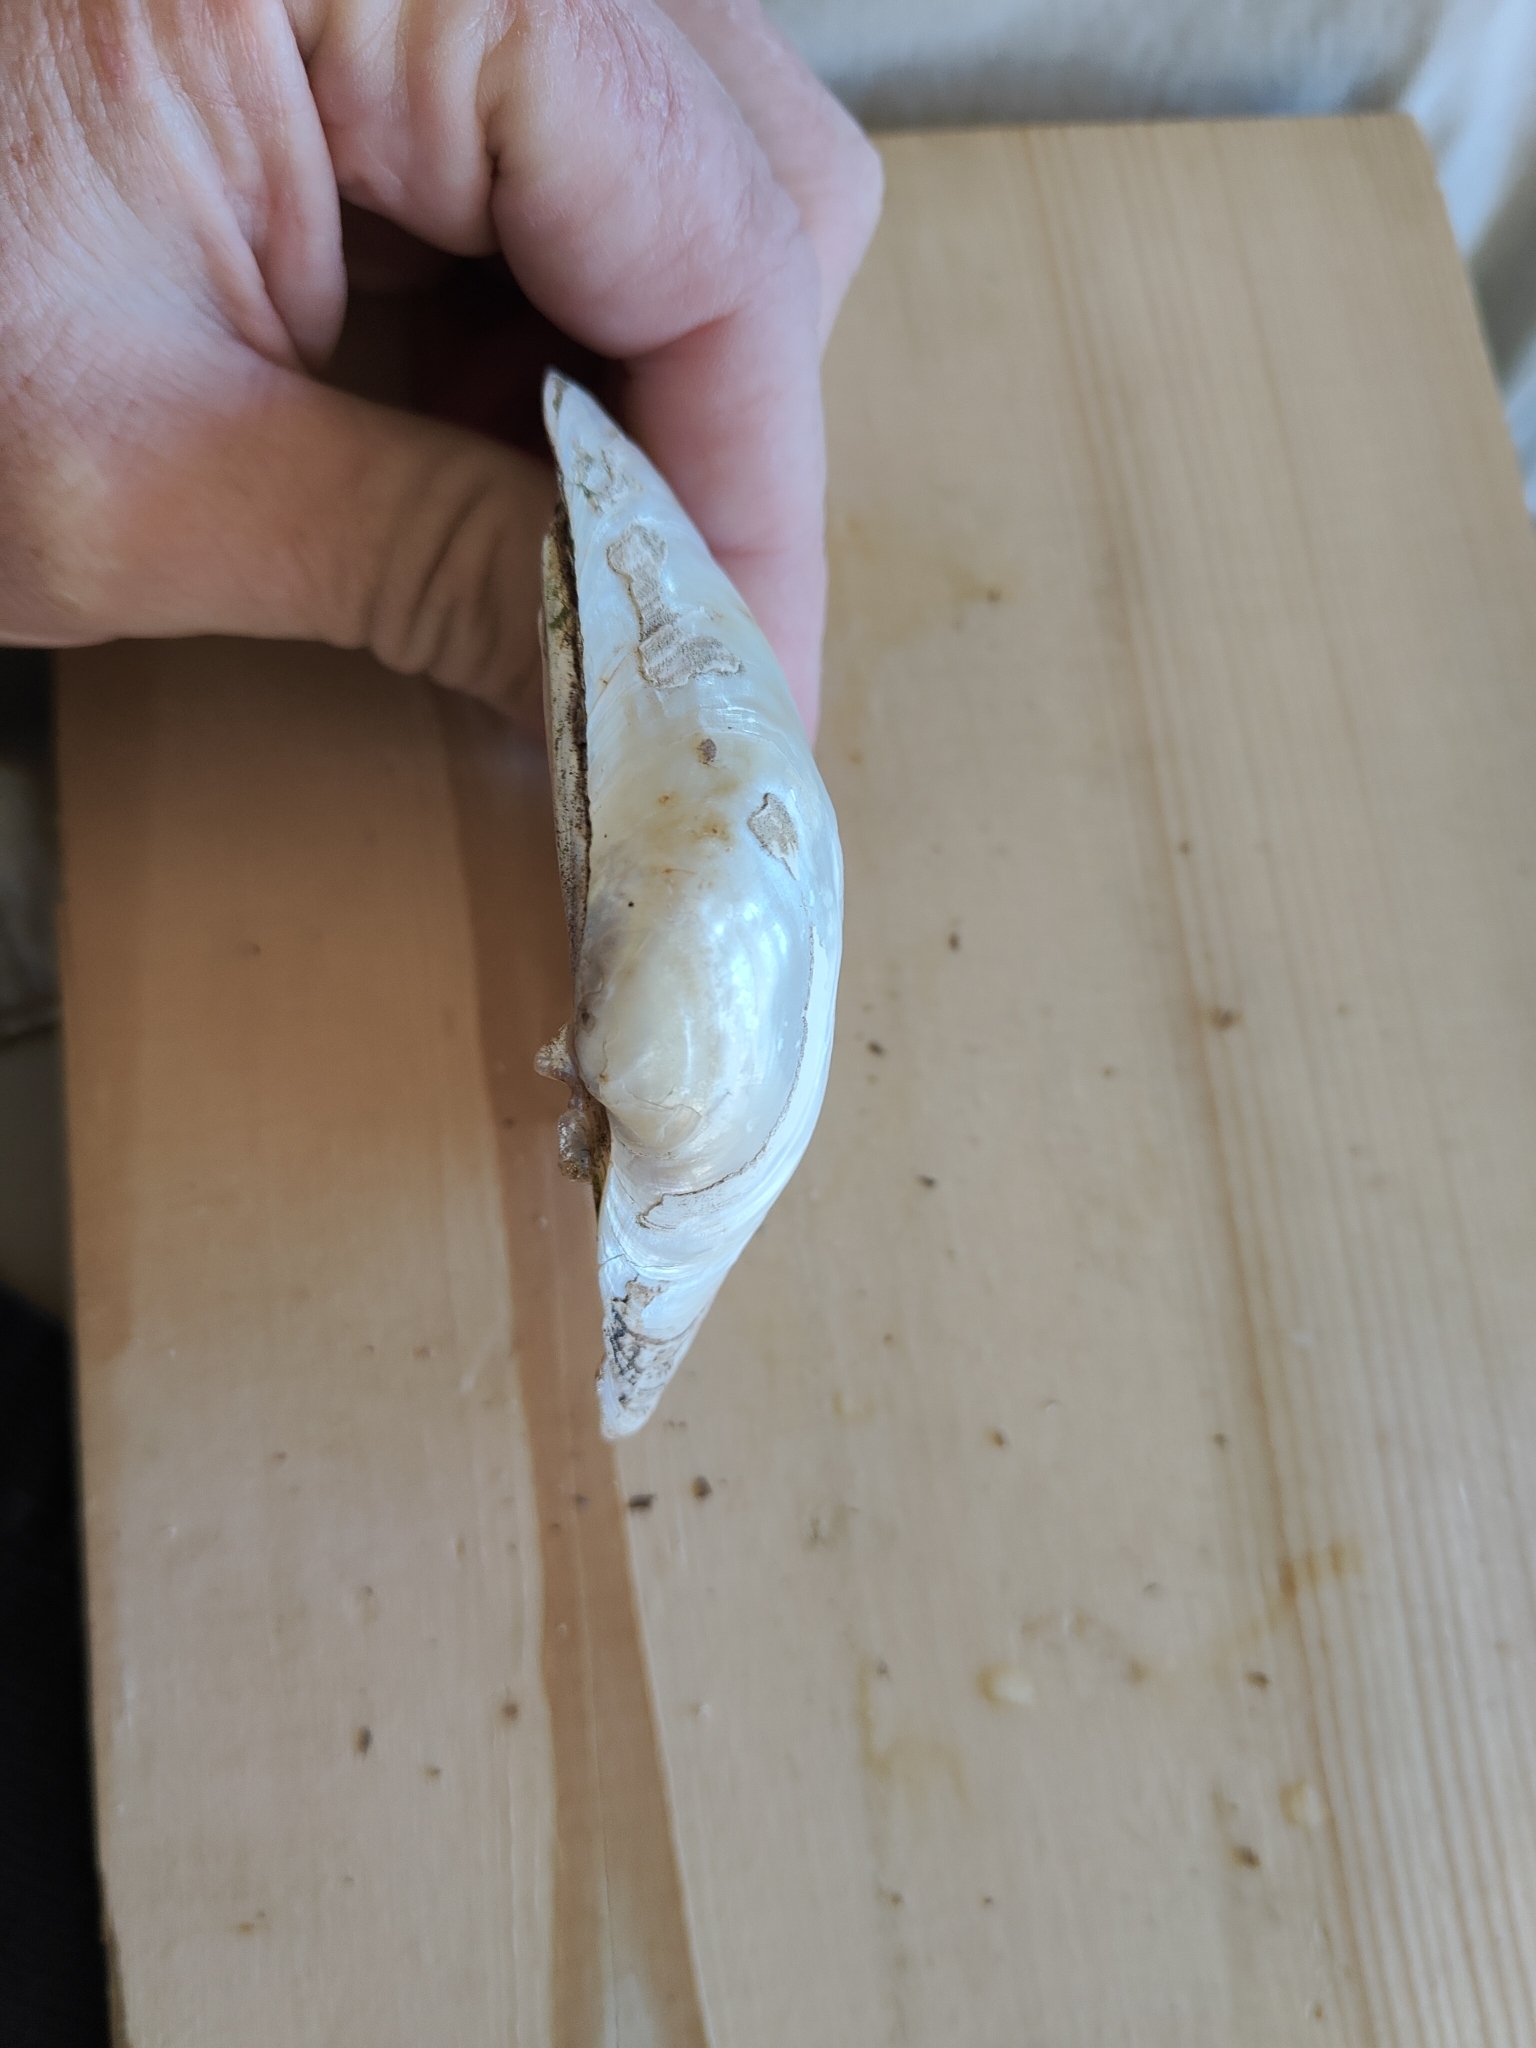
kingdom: Animalia
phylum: Mollusca
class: Bivalvia
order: Unionida
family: Unionidae
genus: Lampsilis
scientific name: Lampsilis cardium
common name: Plain pocketbook
